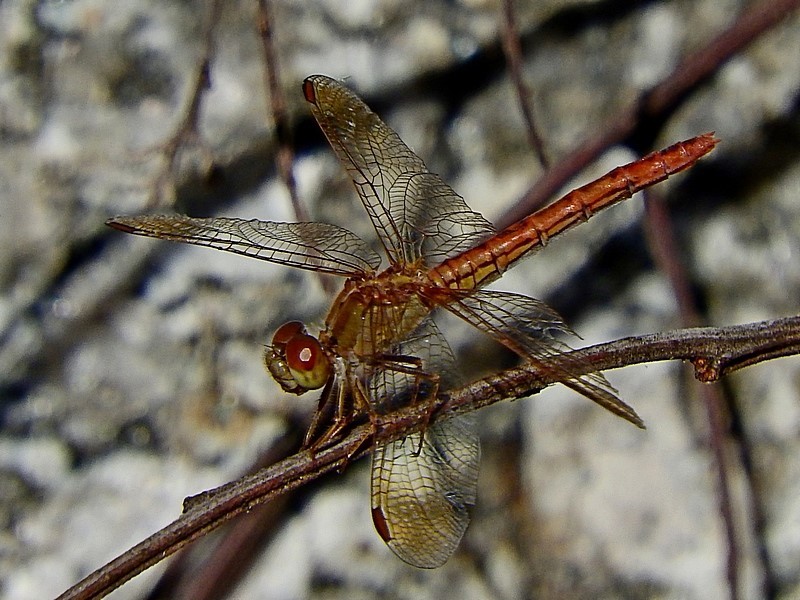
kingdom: Animalia
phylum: Arthropoda
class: Insecta
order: Odonata
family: Libellulidae
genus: Diplacodes
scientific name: Diplacodes haematodes
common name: Scarlet percher
